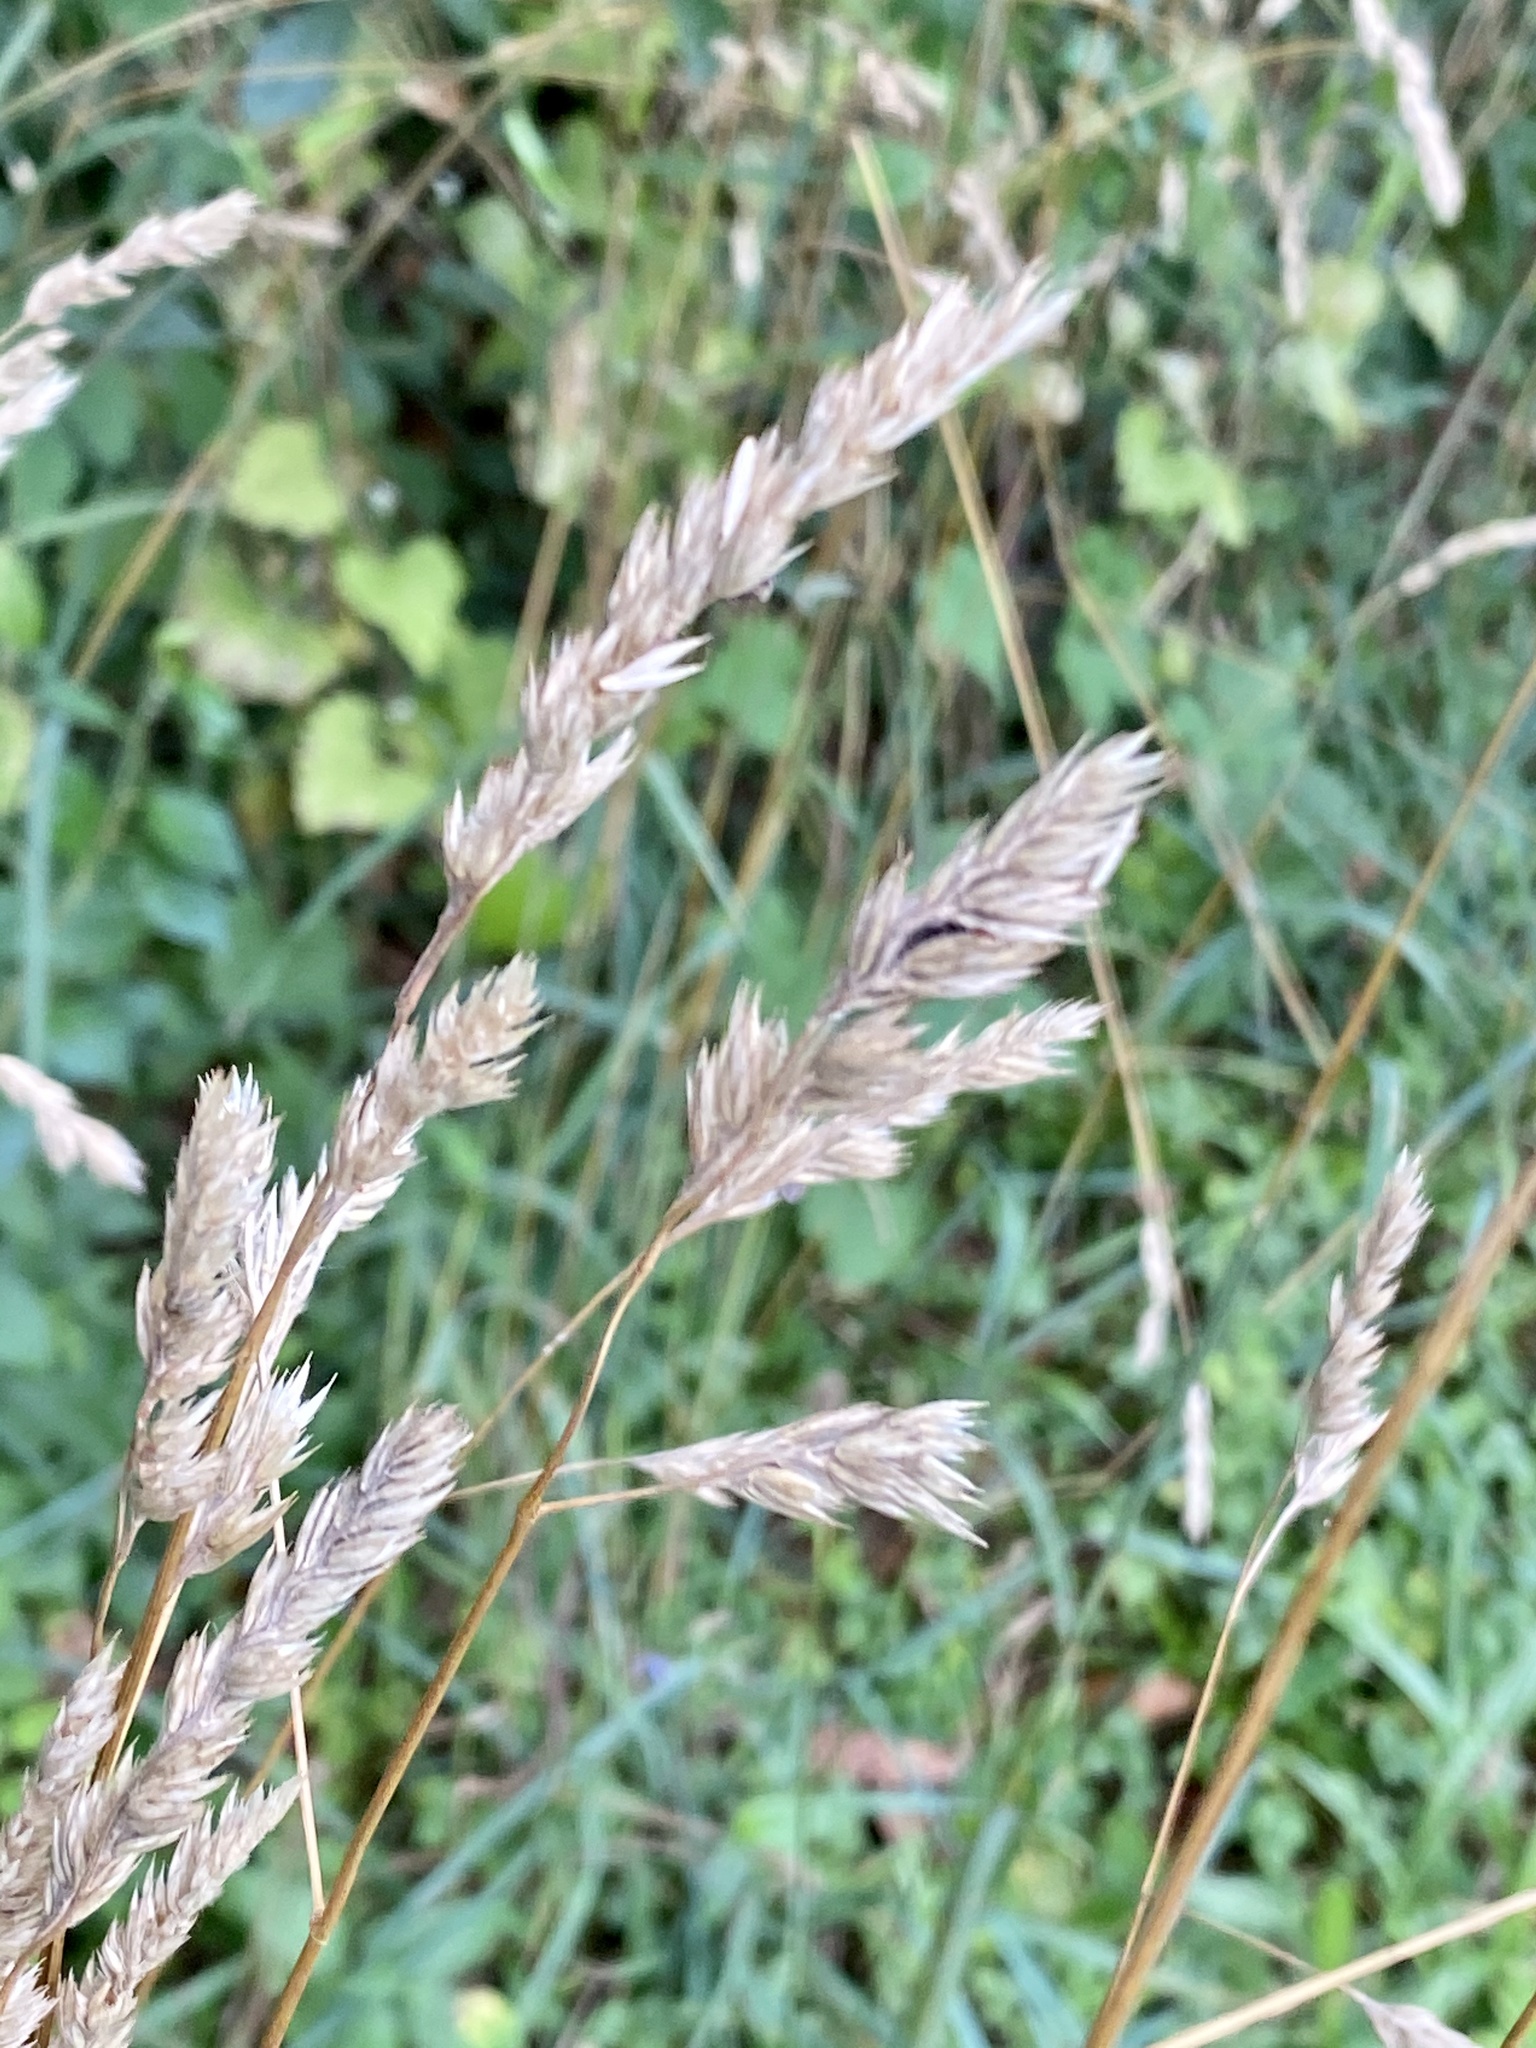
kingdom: Plantae
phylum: Tracheophyta
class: Liliopsida
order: Poales
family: Poaceae
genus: Dactylis
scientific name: Dactylis glomerata
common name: Orchardgrass
